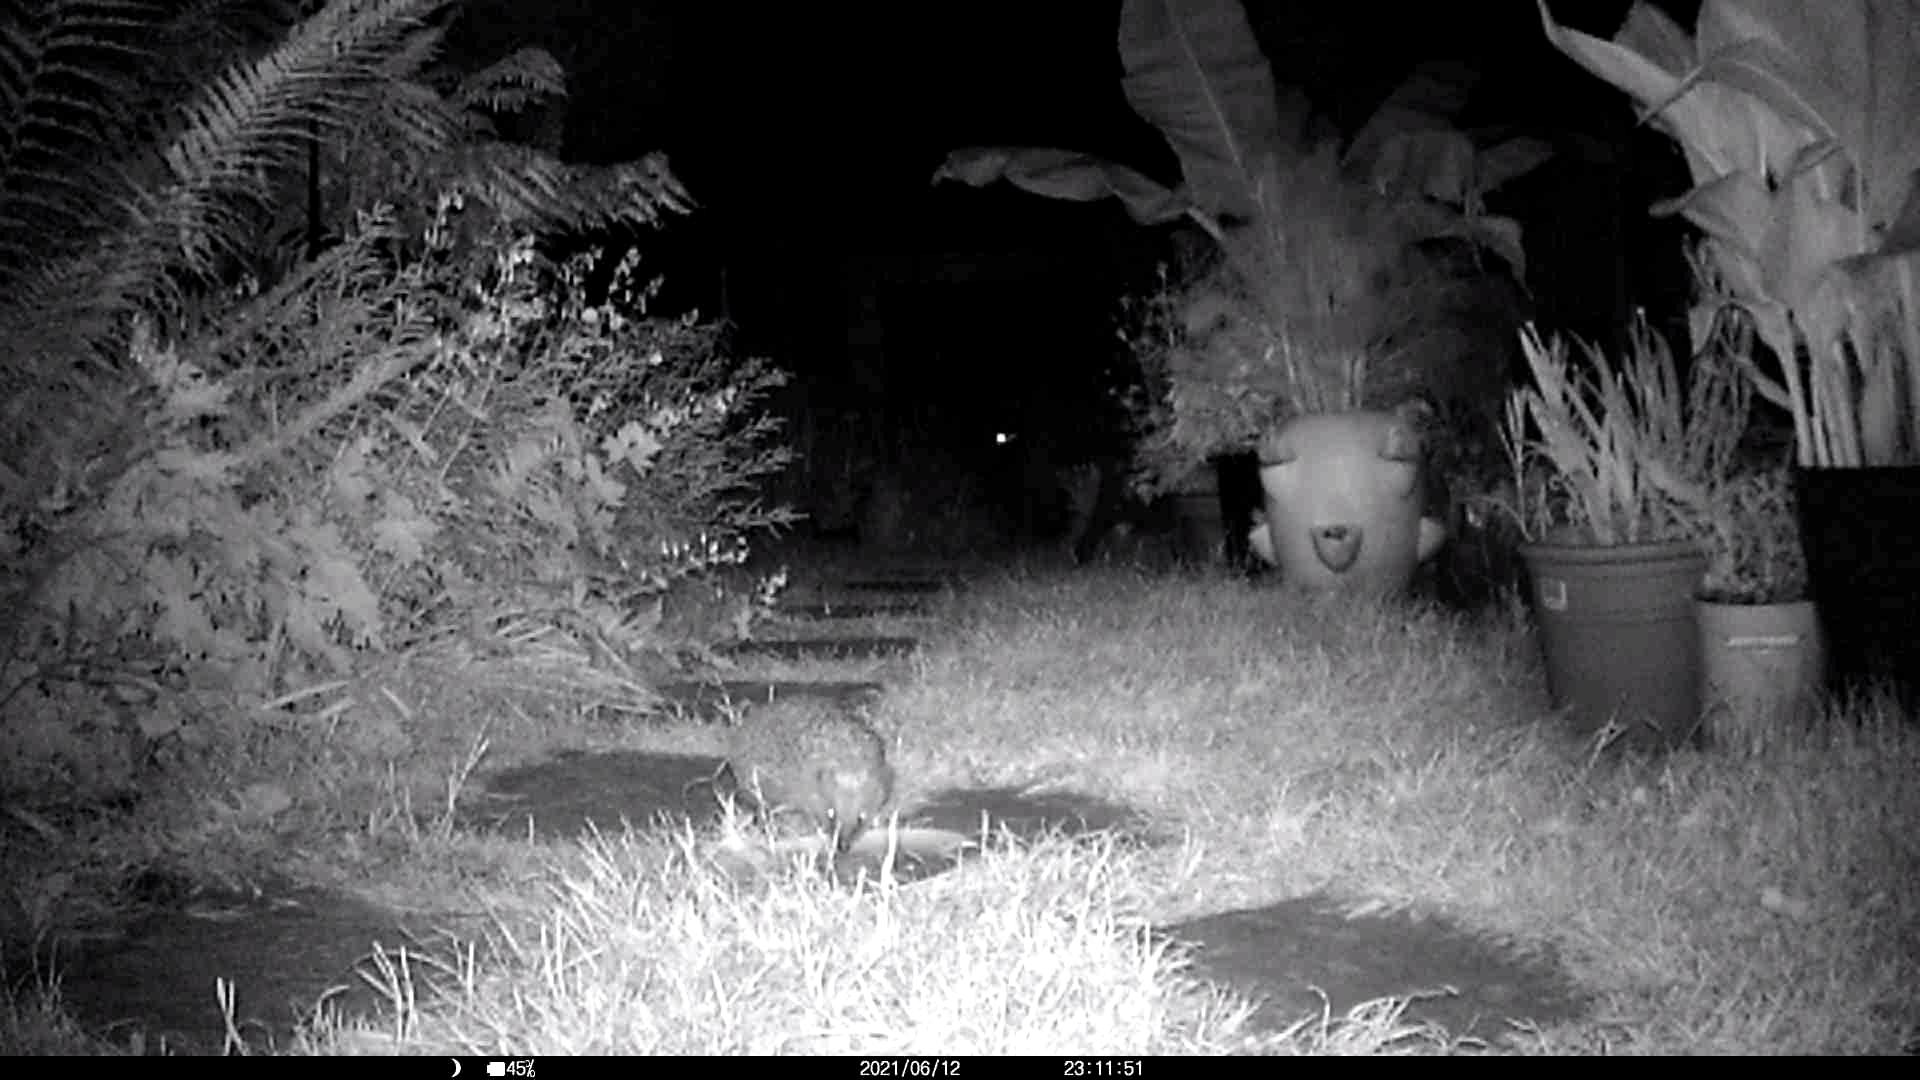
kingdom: Animalia
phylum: Chordata
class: Mammalia
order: Erinaceomorpha
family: Erinaceidae
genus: Erinaceus
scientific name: Erinaceus europaeus
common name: West european hedgehog
